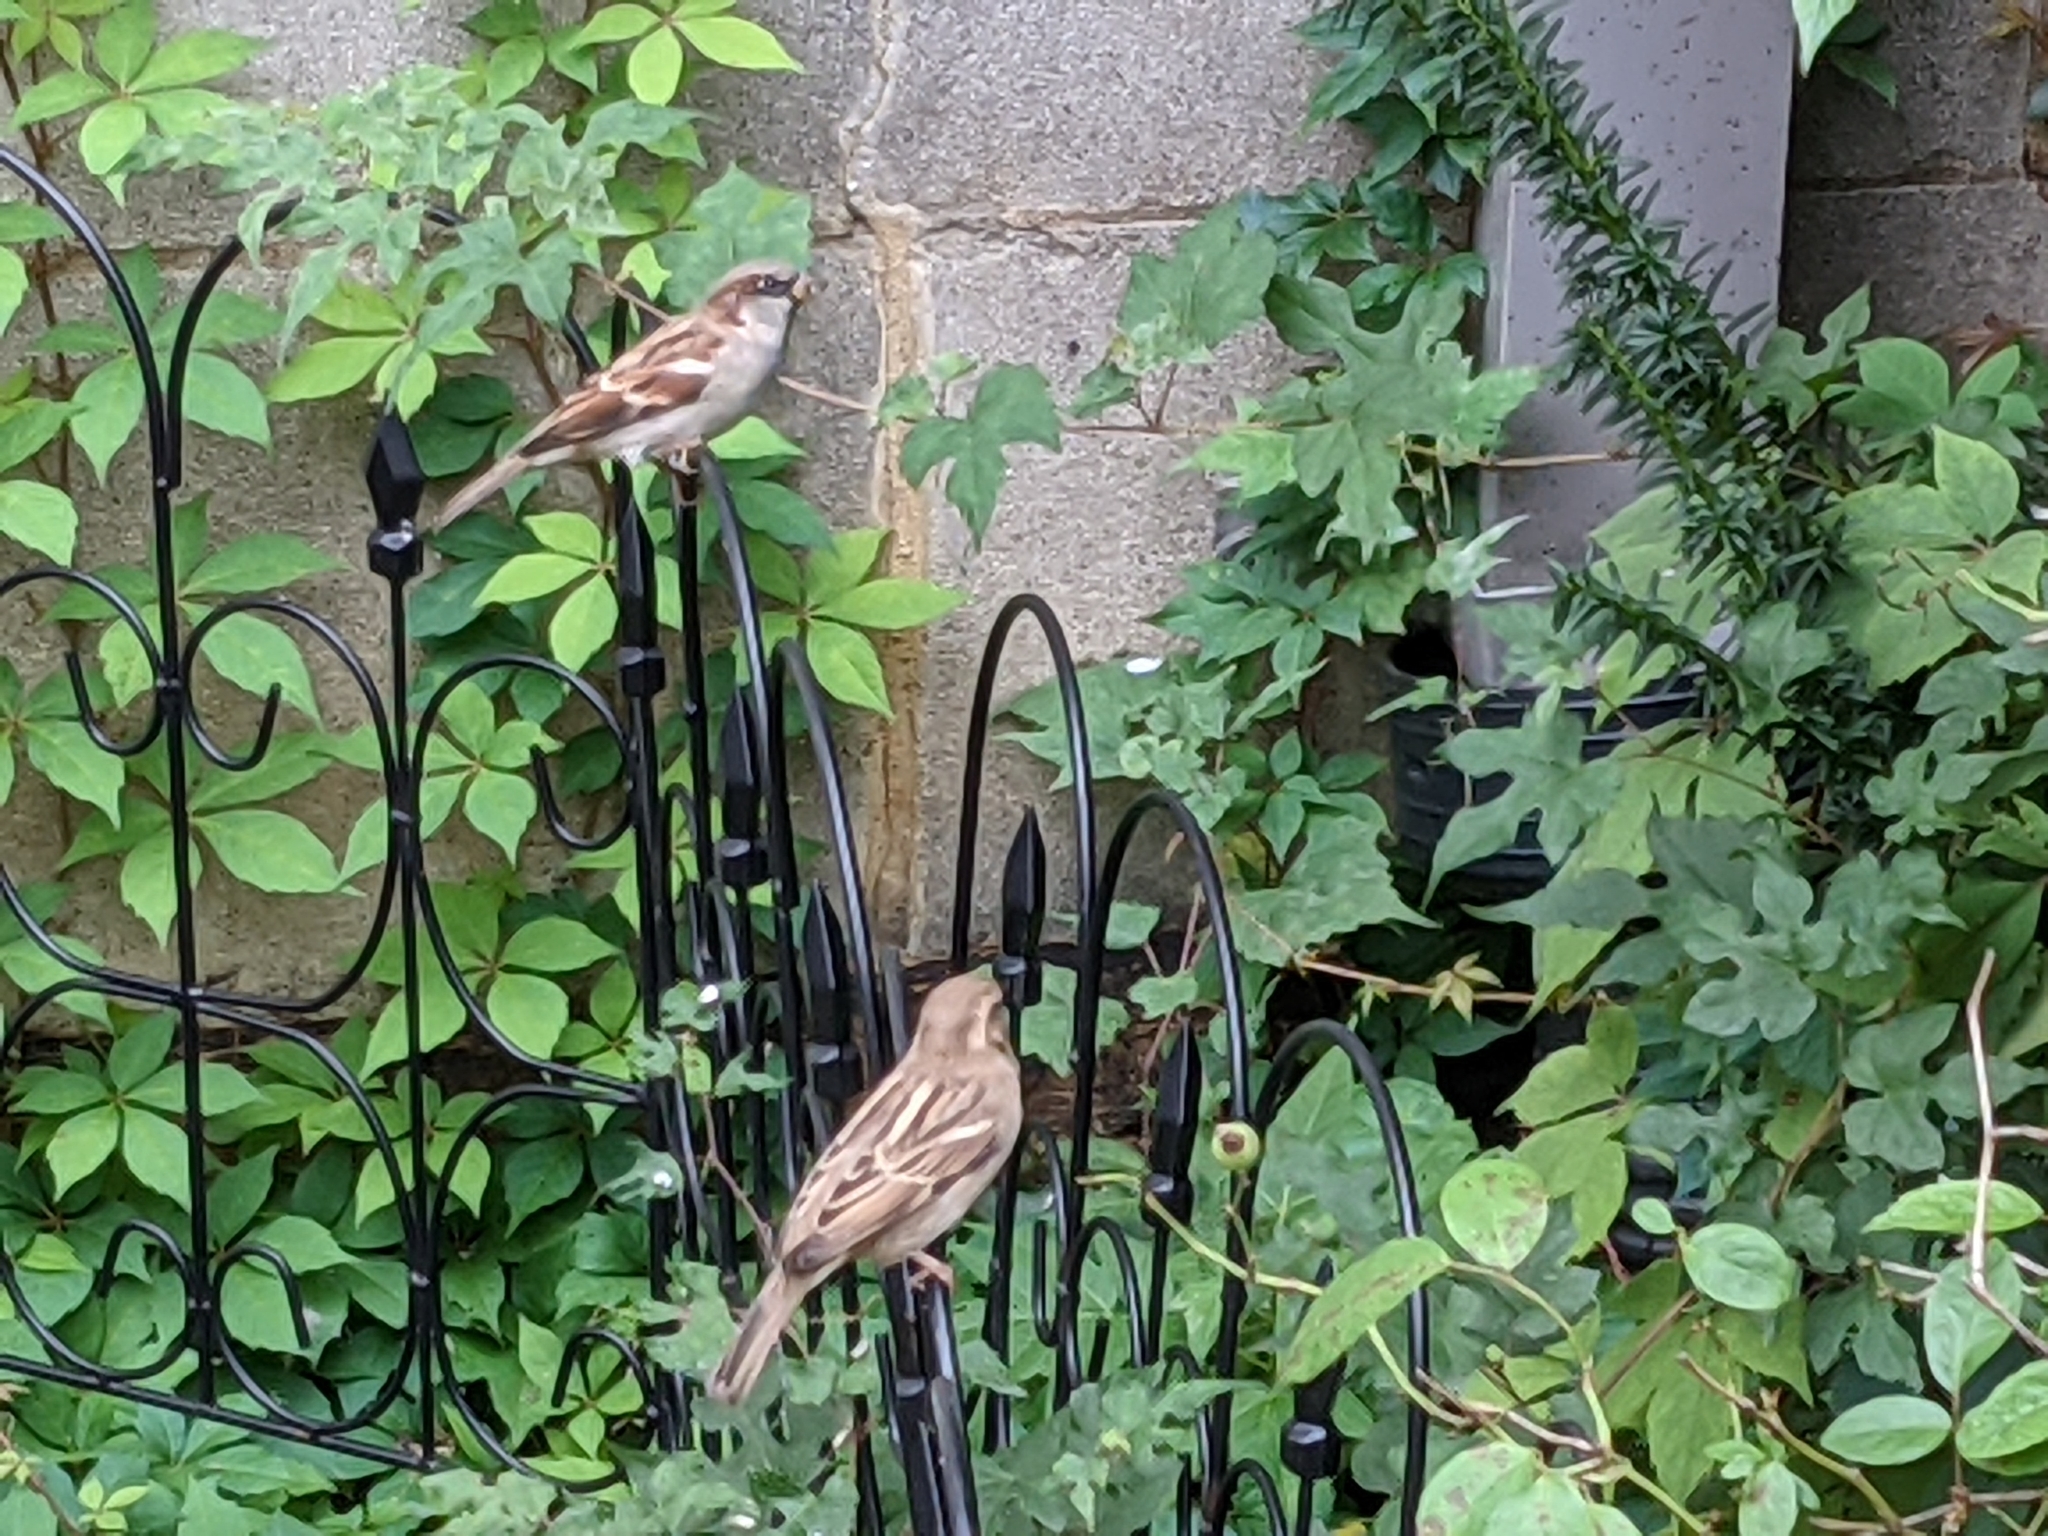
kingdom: Animalia
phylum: Chordata
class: Aves
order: Passeriformes
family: Passeridae
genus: Passer
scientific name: Passer domesticus
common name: House sparrow
